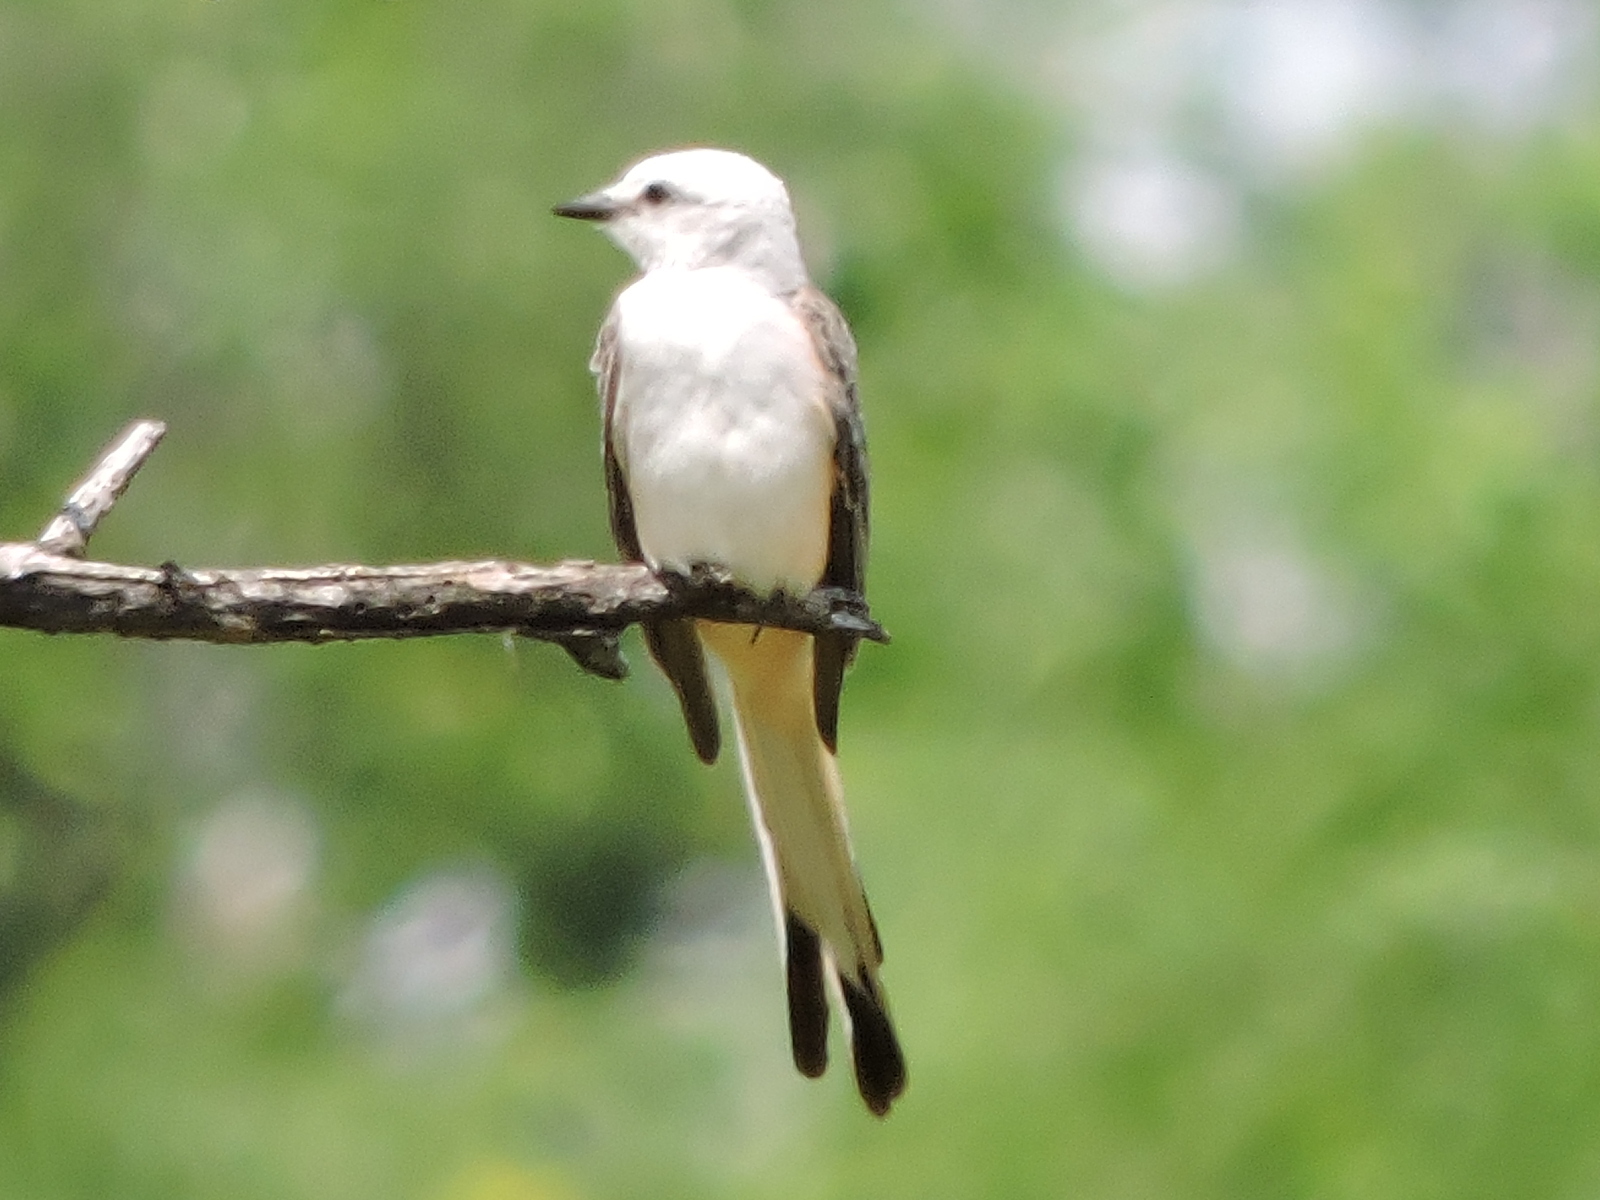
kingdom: Animalia
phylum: Chordata
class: Aves
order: Passeriformes
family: Tyrannidae
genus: Tyrannus
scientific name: Tyrannus forficatus
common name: Scissor-tailed flycatcher
